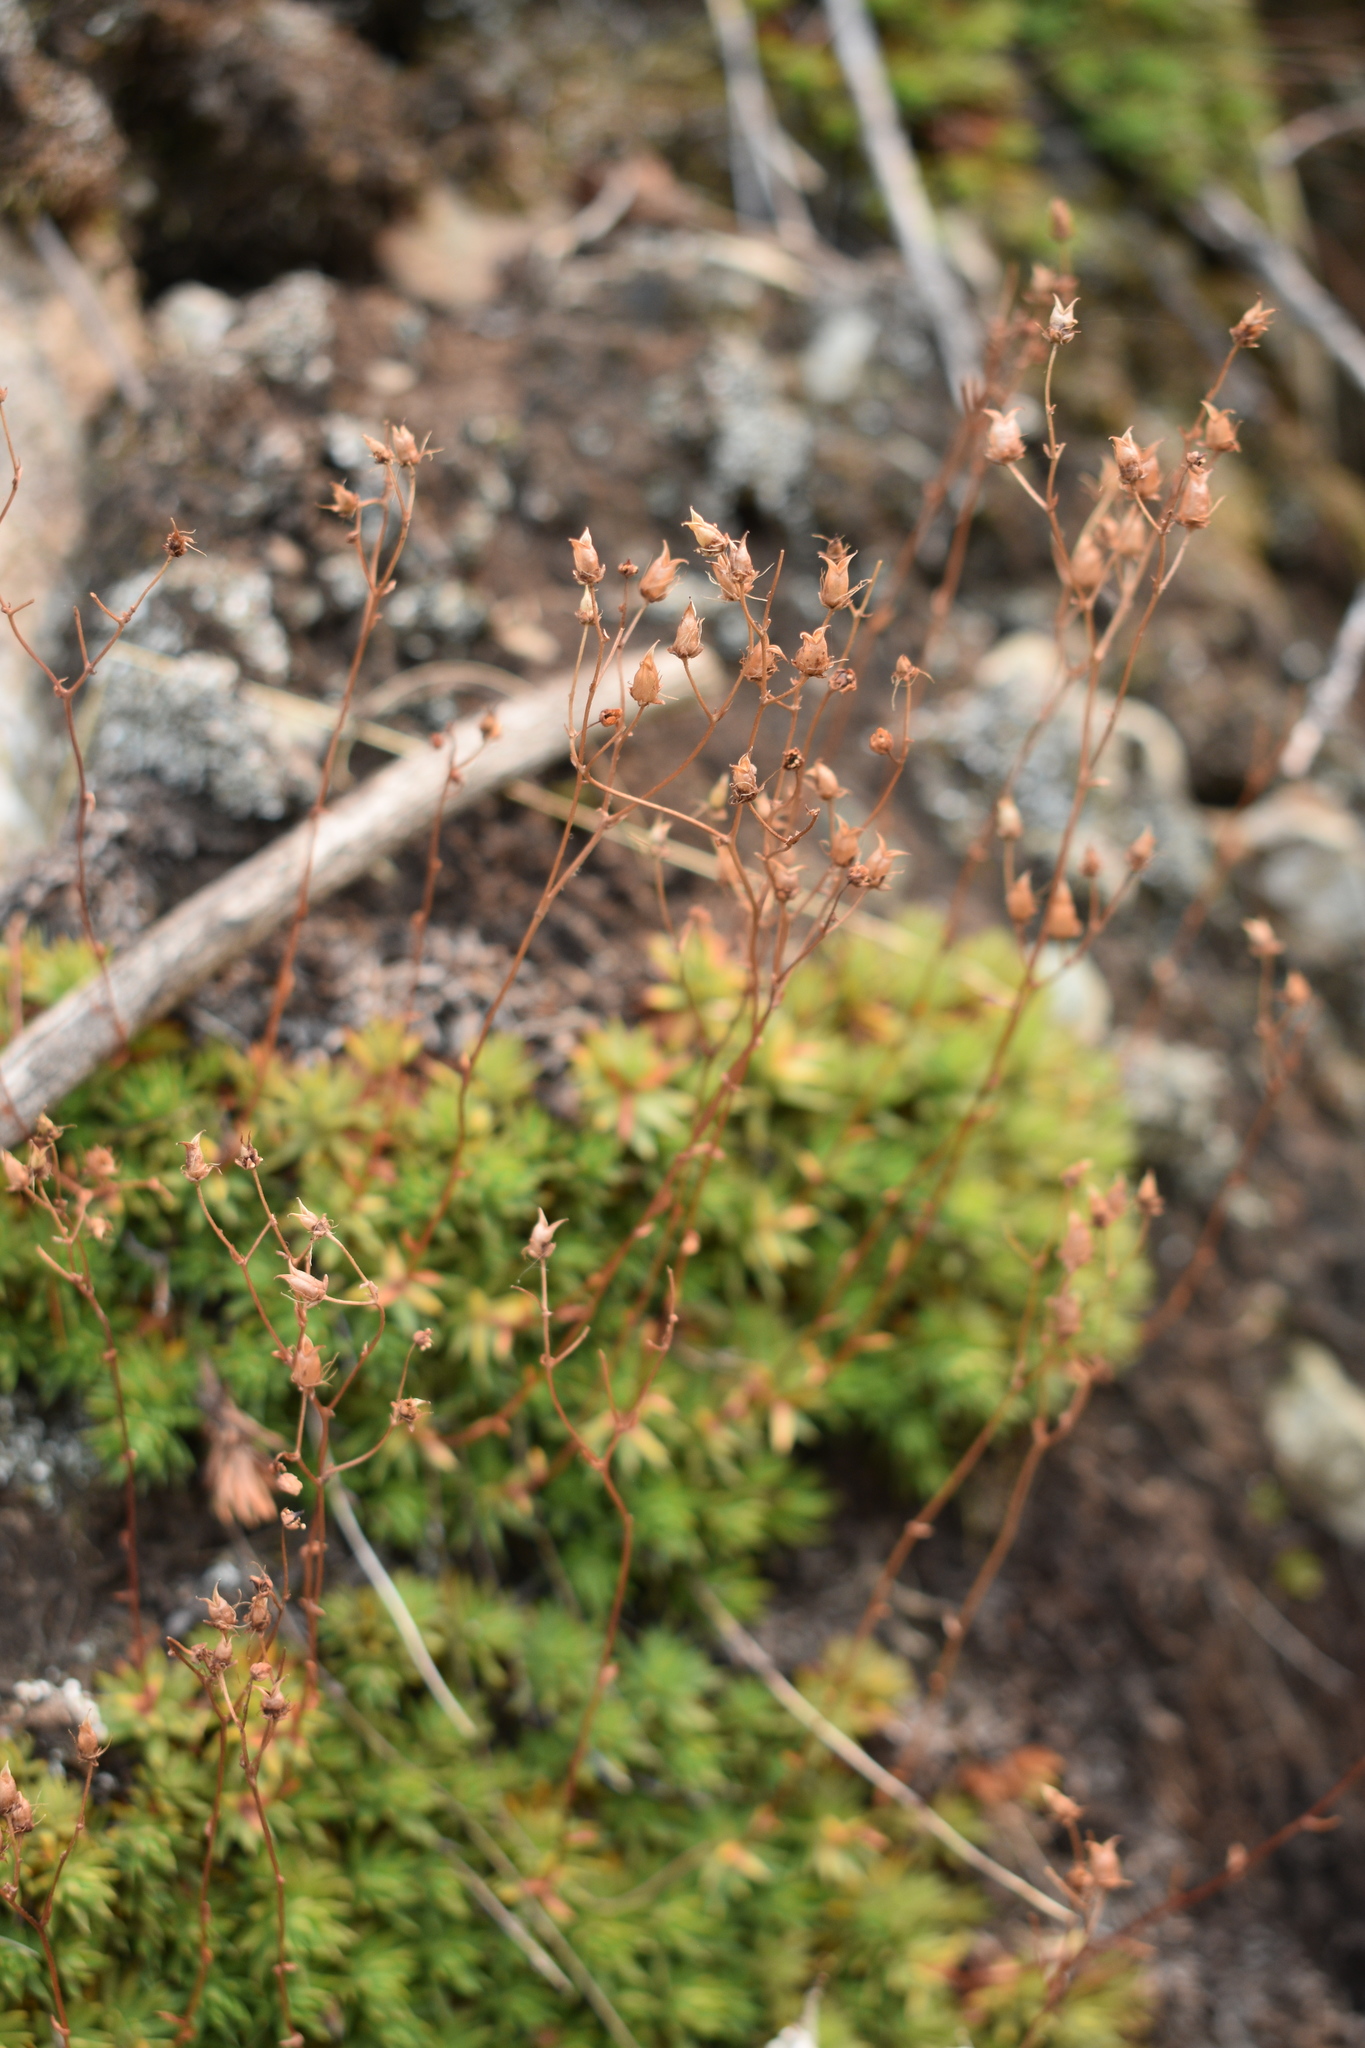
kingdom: Plantae
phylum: Tracheophyta
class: Magnoliopsida
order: Saxifragales
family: Saxifragaceae
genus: Saxifraga
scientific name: Saxifraga bronchialis
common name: Matted saxifrage
